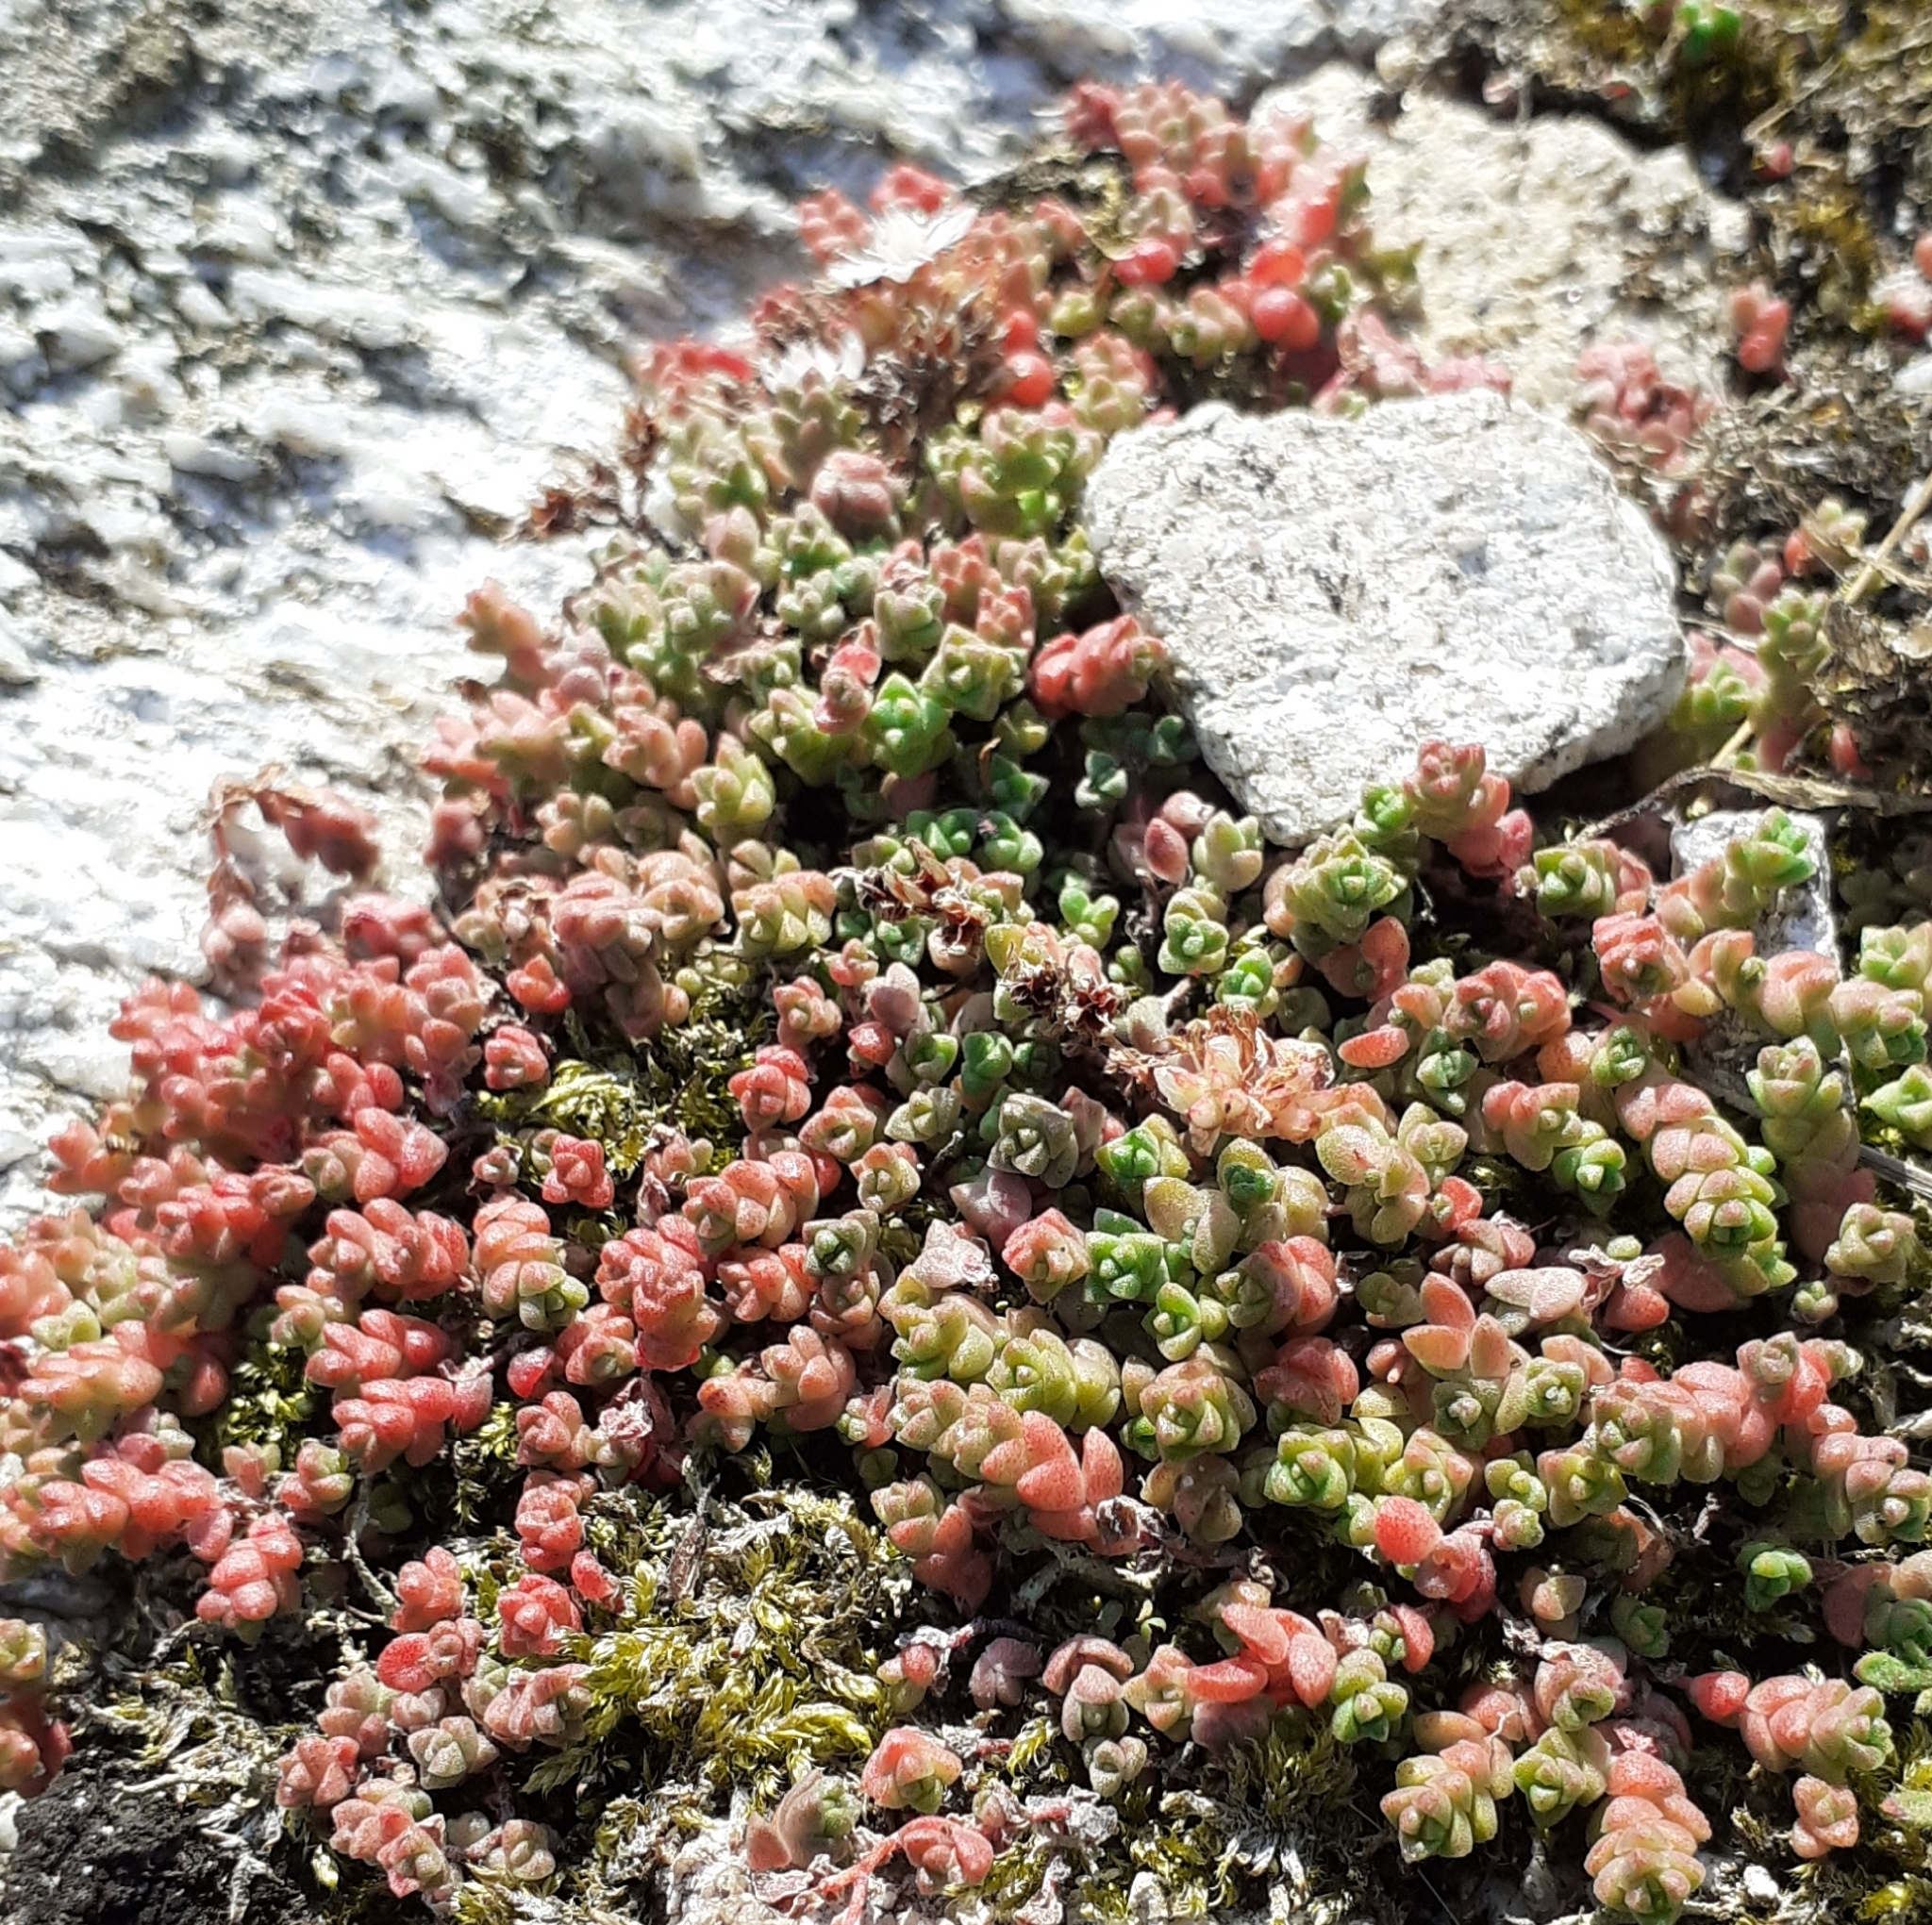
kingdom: Plantae
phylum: Tracheophyta
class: Magnoliopsida
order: Saxifragales
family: Crassulaceae
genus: Sedum
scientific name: Sedum anglicum
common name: English stonecrop
